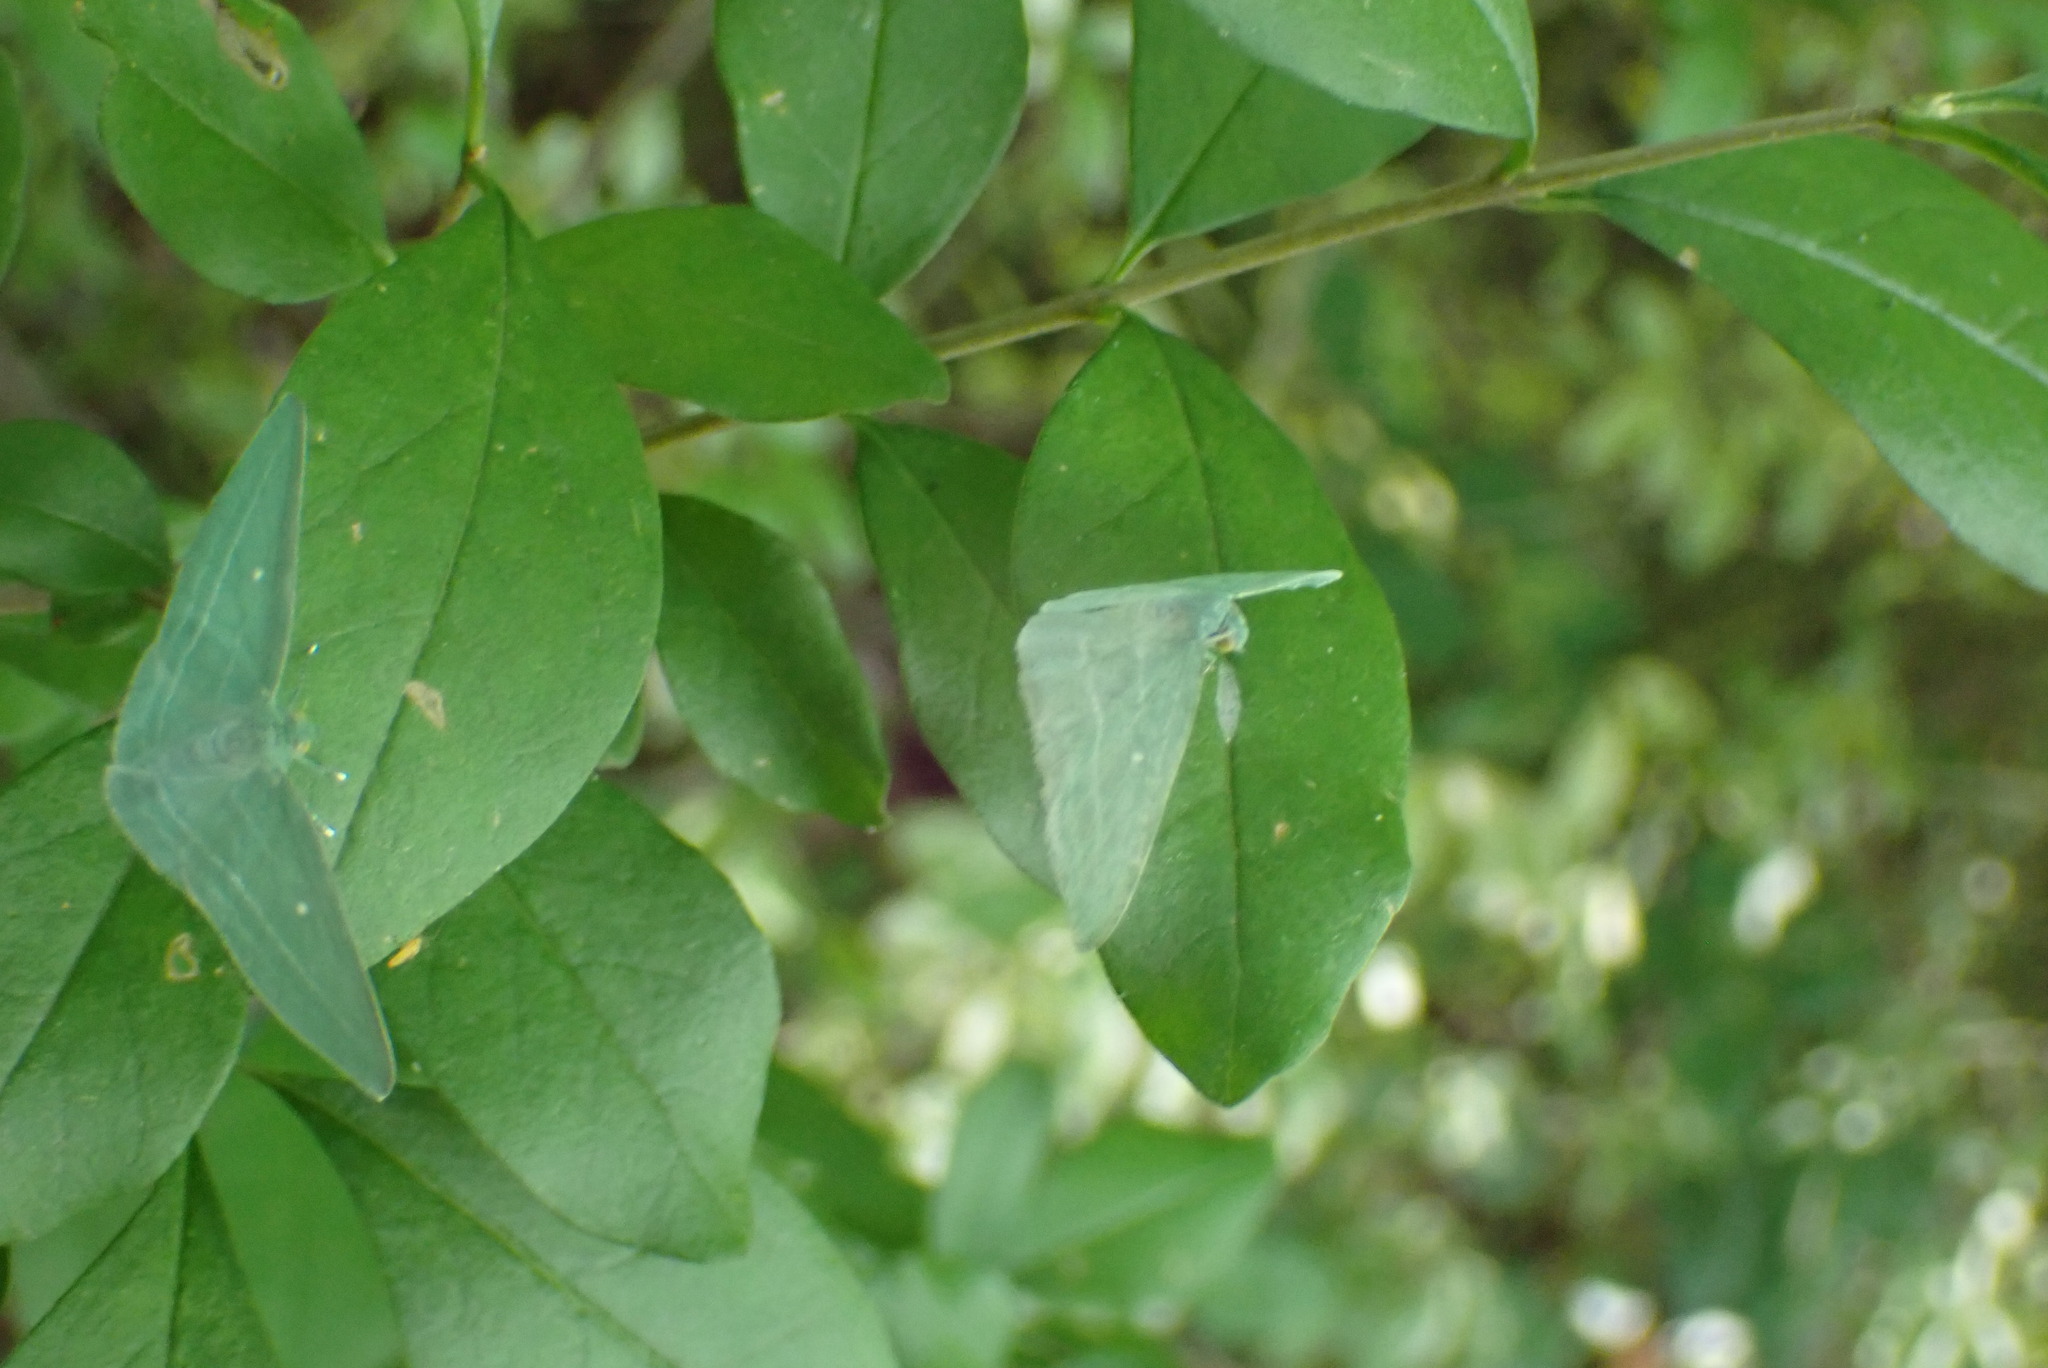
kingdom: Animalia
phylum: Arthropoda
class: Insecta
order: Lepidoptera
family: Geometridae
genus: Dyspteris
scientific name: Dyspteris abortivaria
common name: Bad-wing
